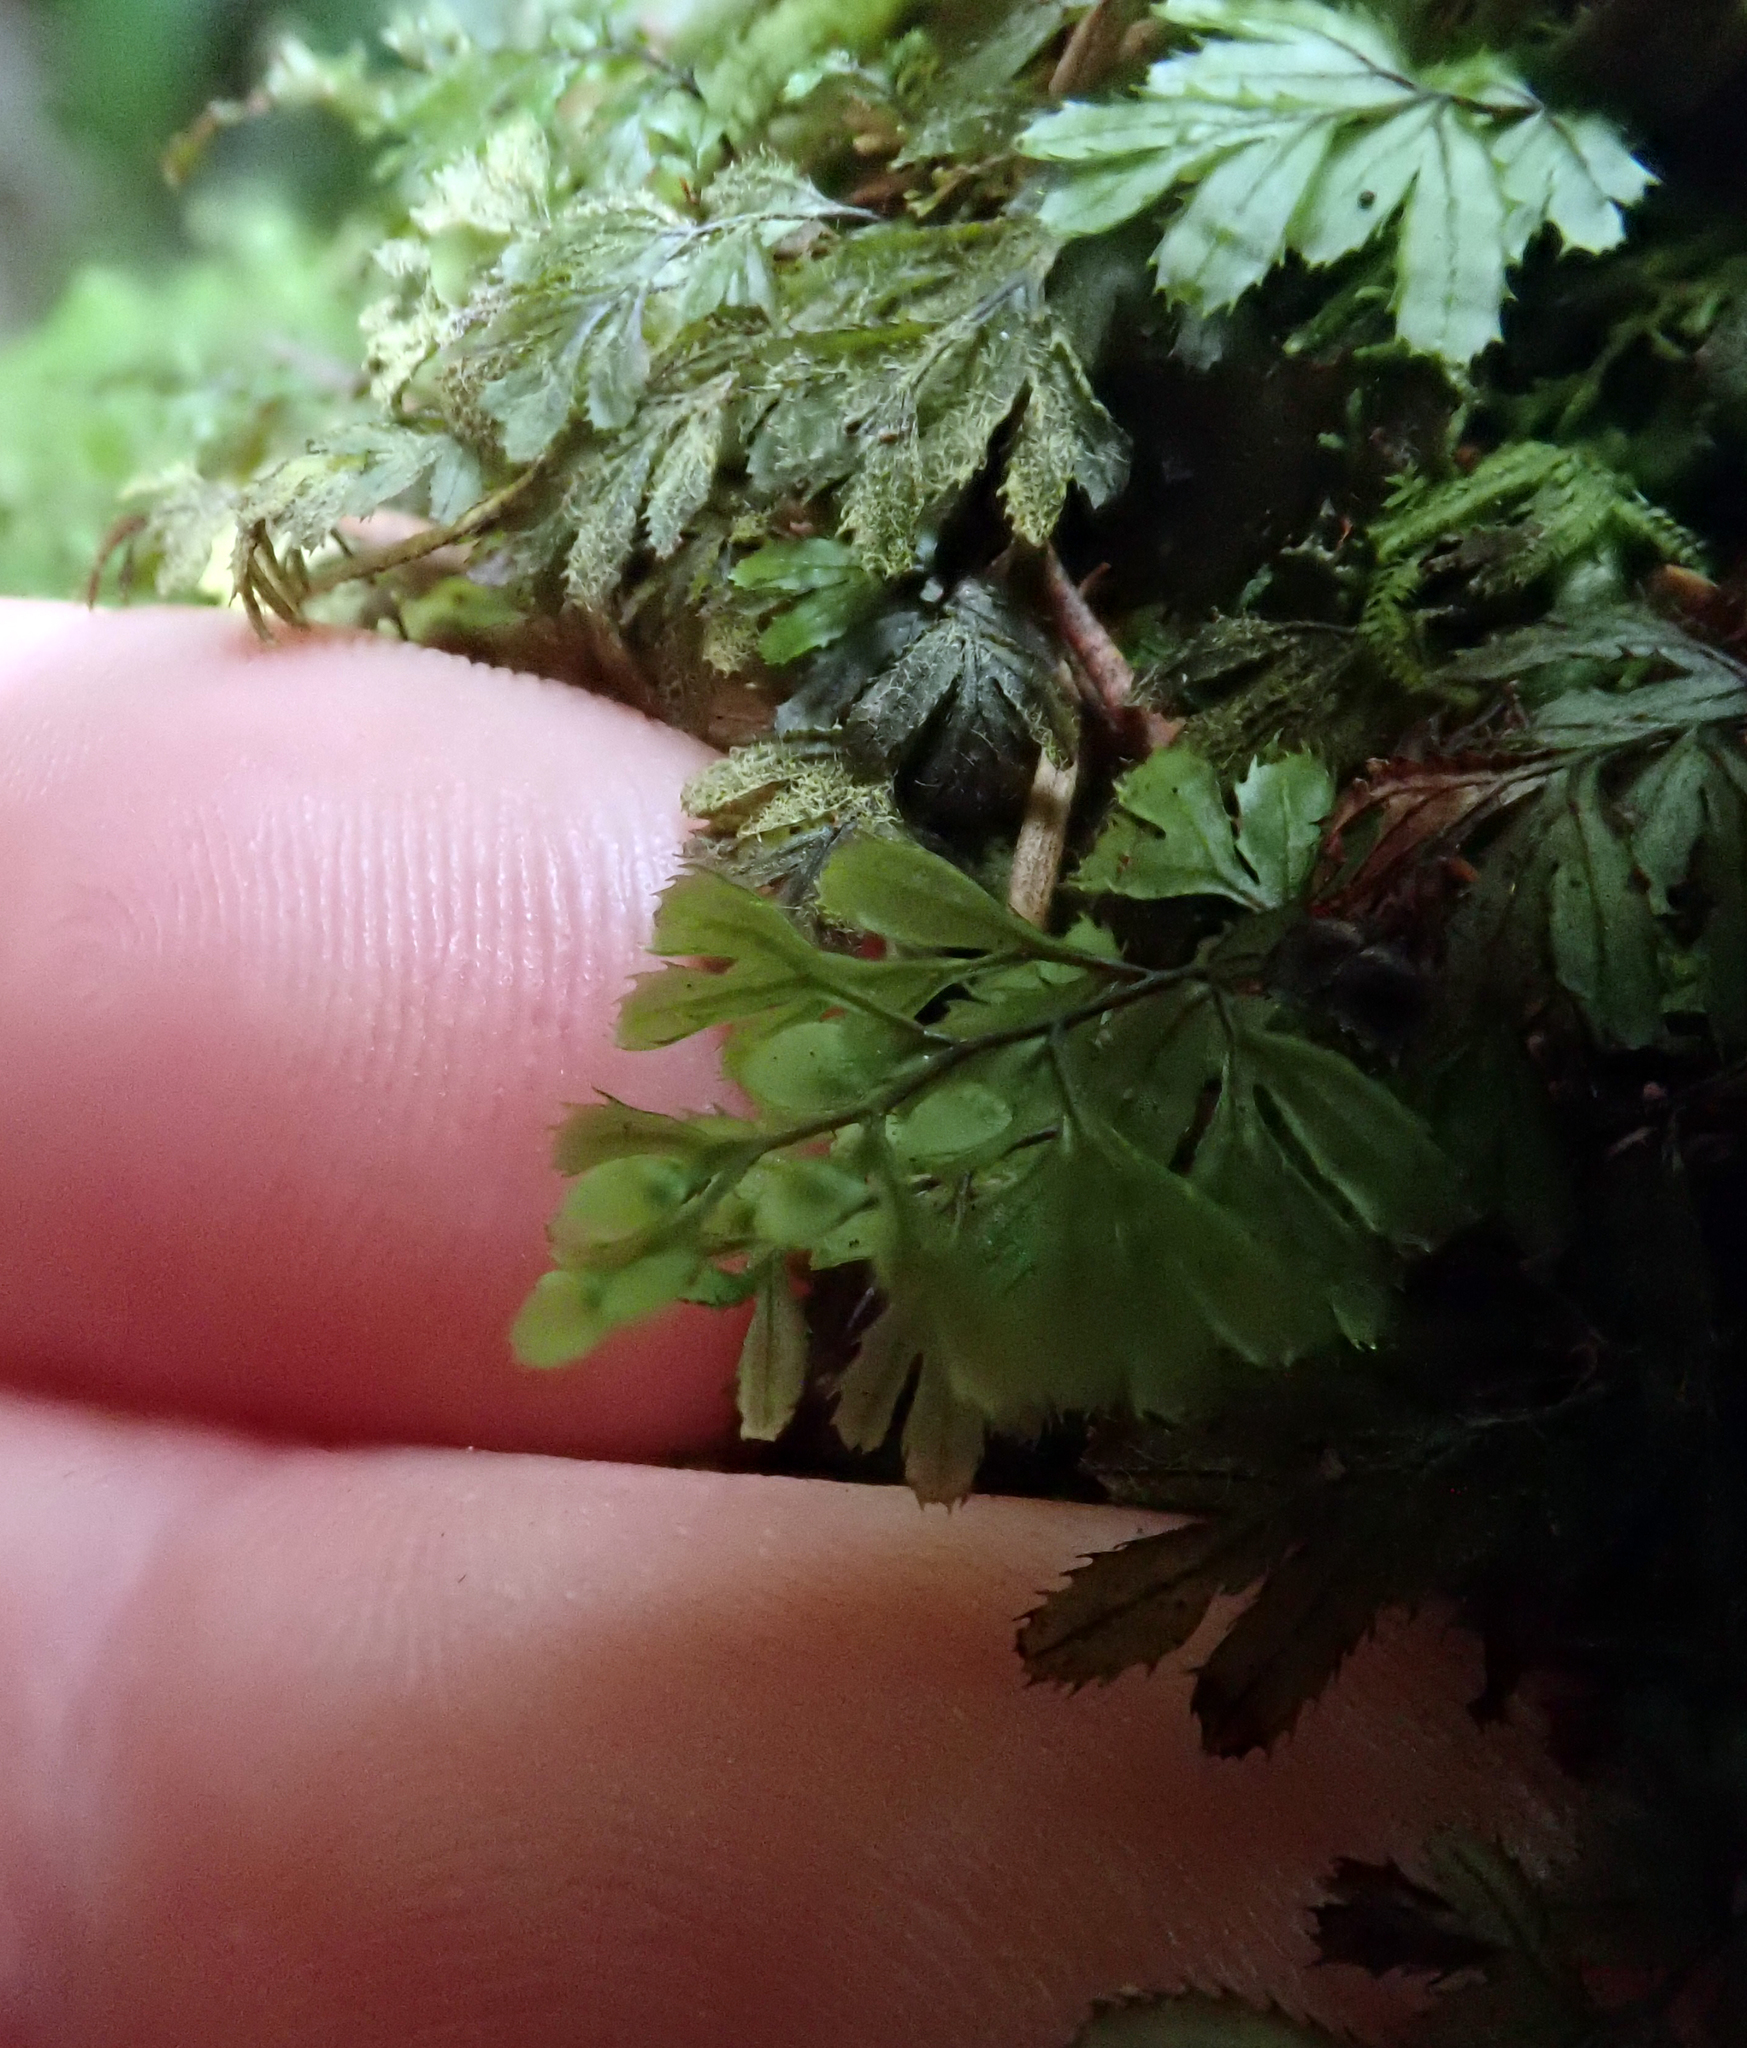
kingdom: Plantae
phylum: Tracheophyta
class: Polypodiopsida
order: Hymenophyllales
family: Hymenophyllaceae
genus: Hymenophyllum
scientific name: Hymenophyllum revolutum
